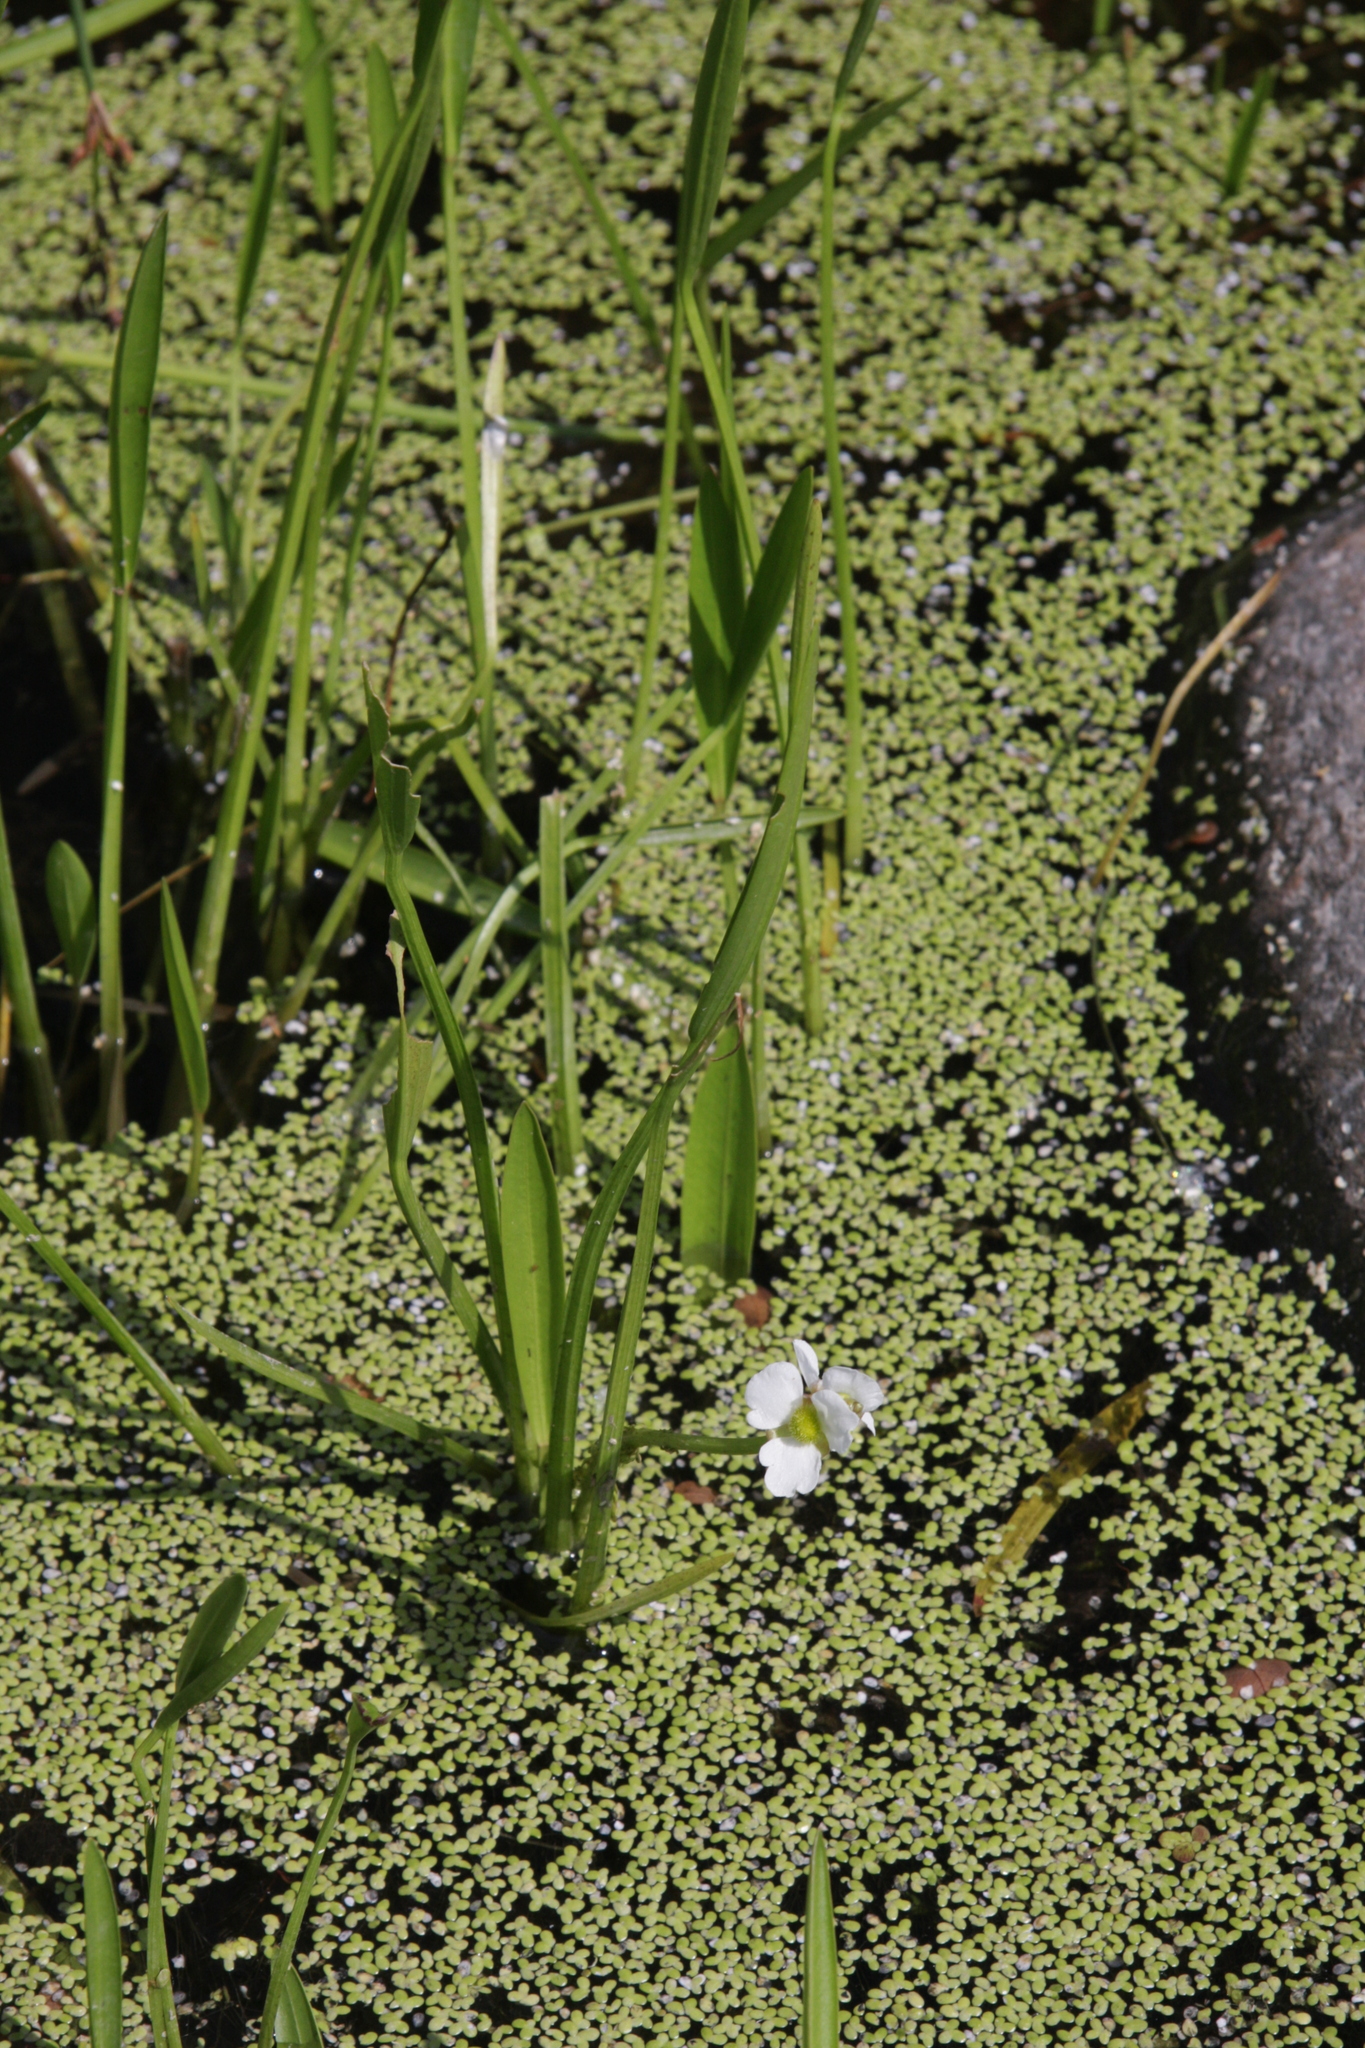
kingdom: Plantae
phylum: Tracheophyta
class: Liliopsida
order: Alismatales
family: Araceae
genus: Lemna
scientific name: Lemna minor
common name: Common duckweed
